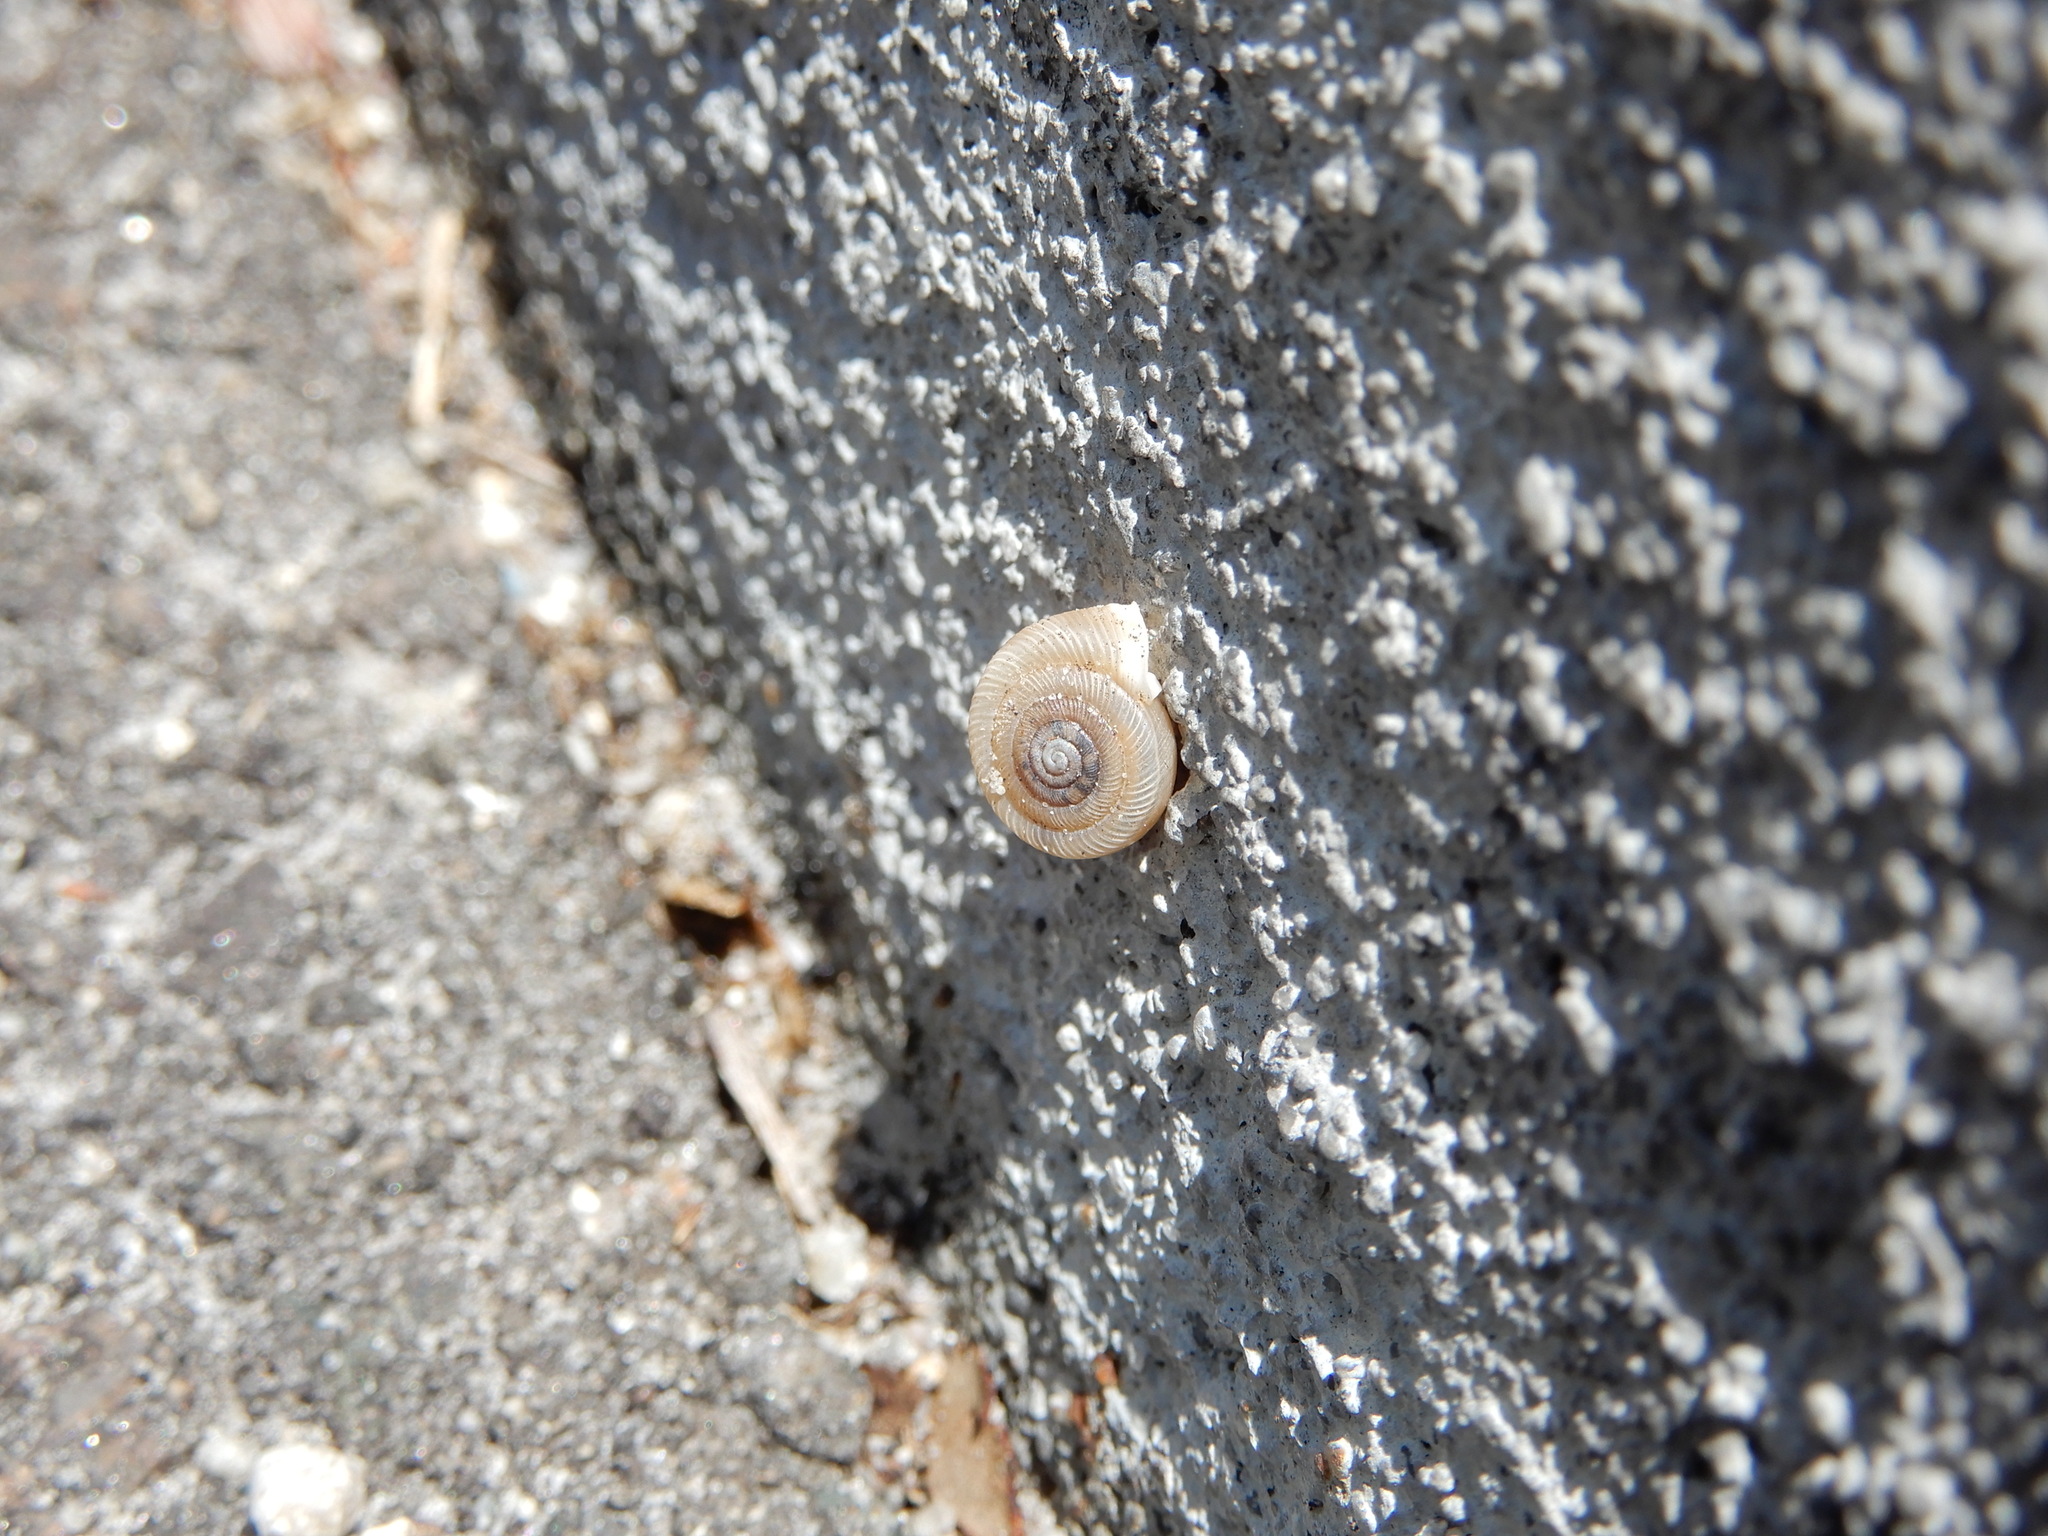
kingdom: Animalia
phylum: Mollusca
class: Gastropoda
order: Stylommatophora
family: Polygyridae
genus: Polygyra
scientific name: Polygyra cereolus
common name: Southern flatcone snail
